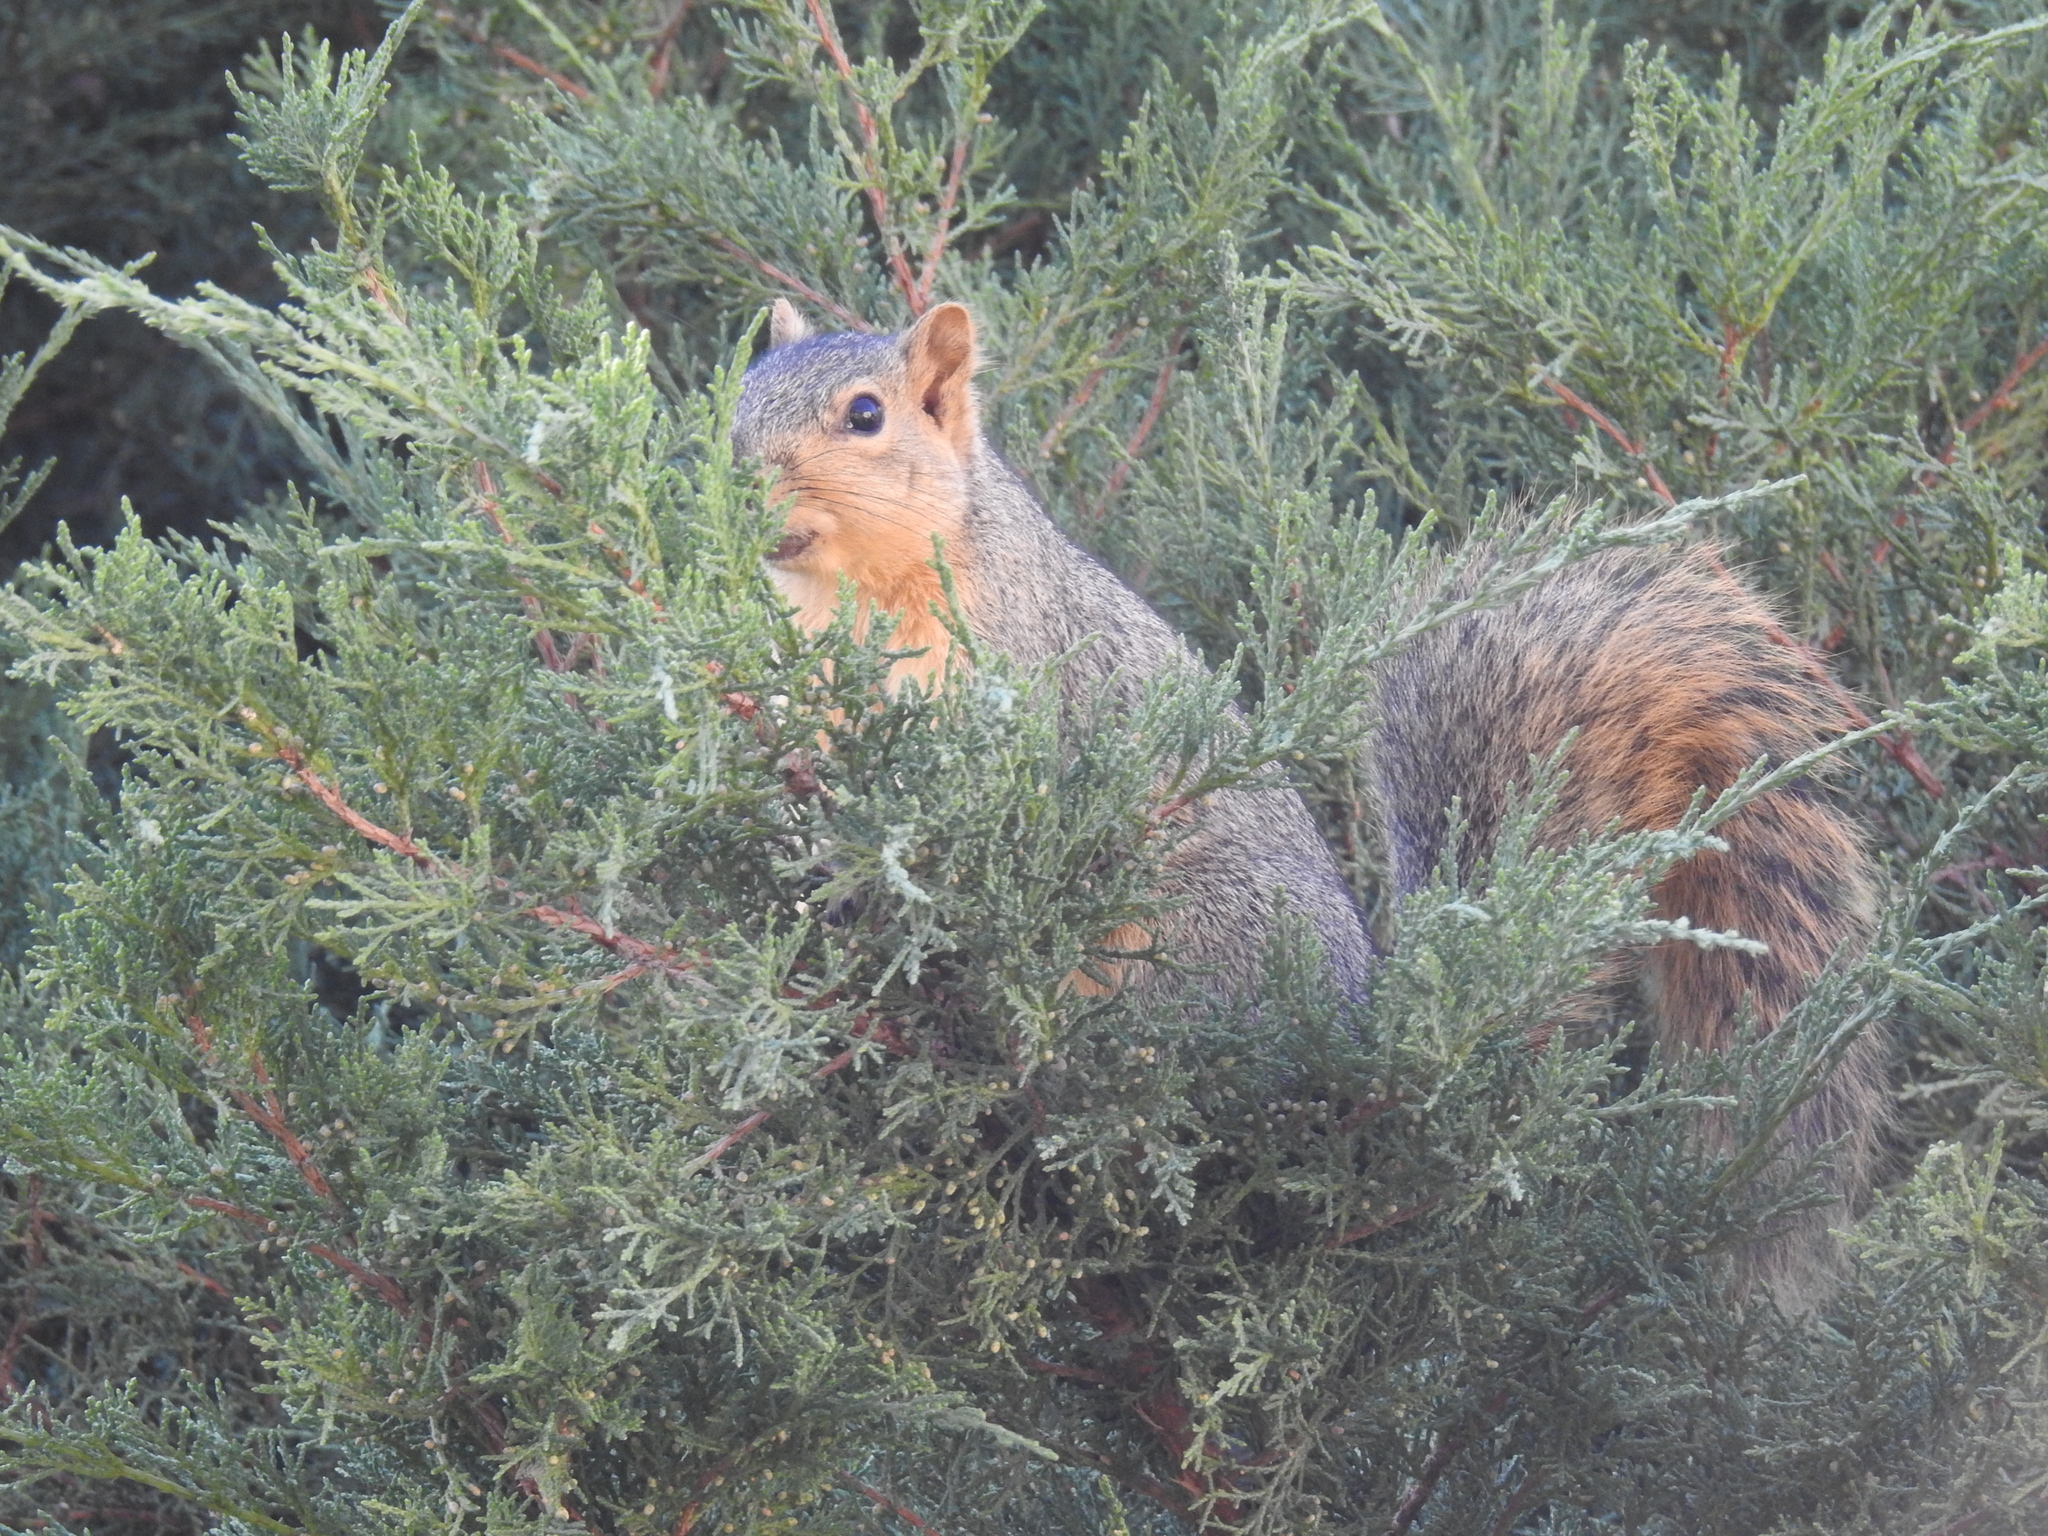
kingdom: Animalia
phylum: Chordata
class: Mammalia
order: Rodentia
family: Sciuridae
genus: Sciurus
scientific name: Sciurus niger
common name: Fox squirrel
